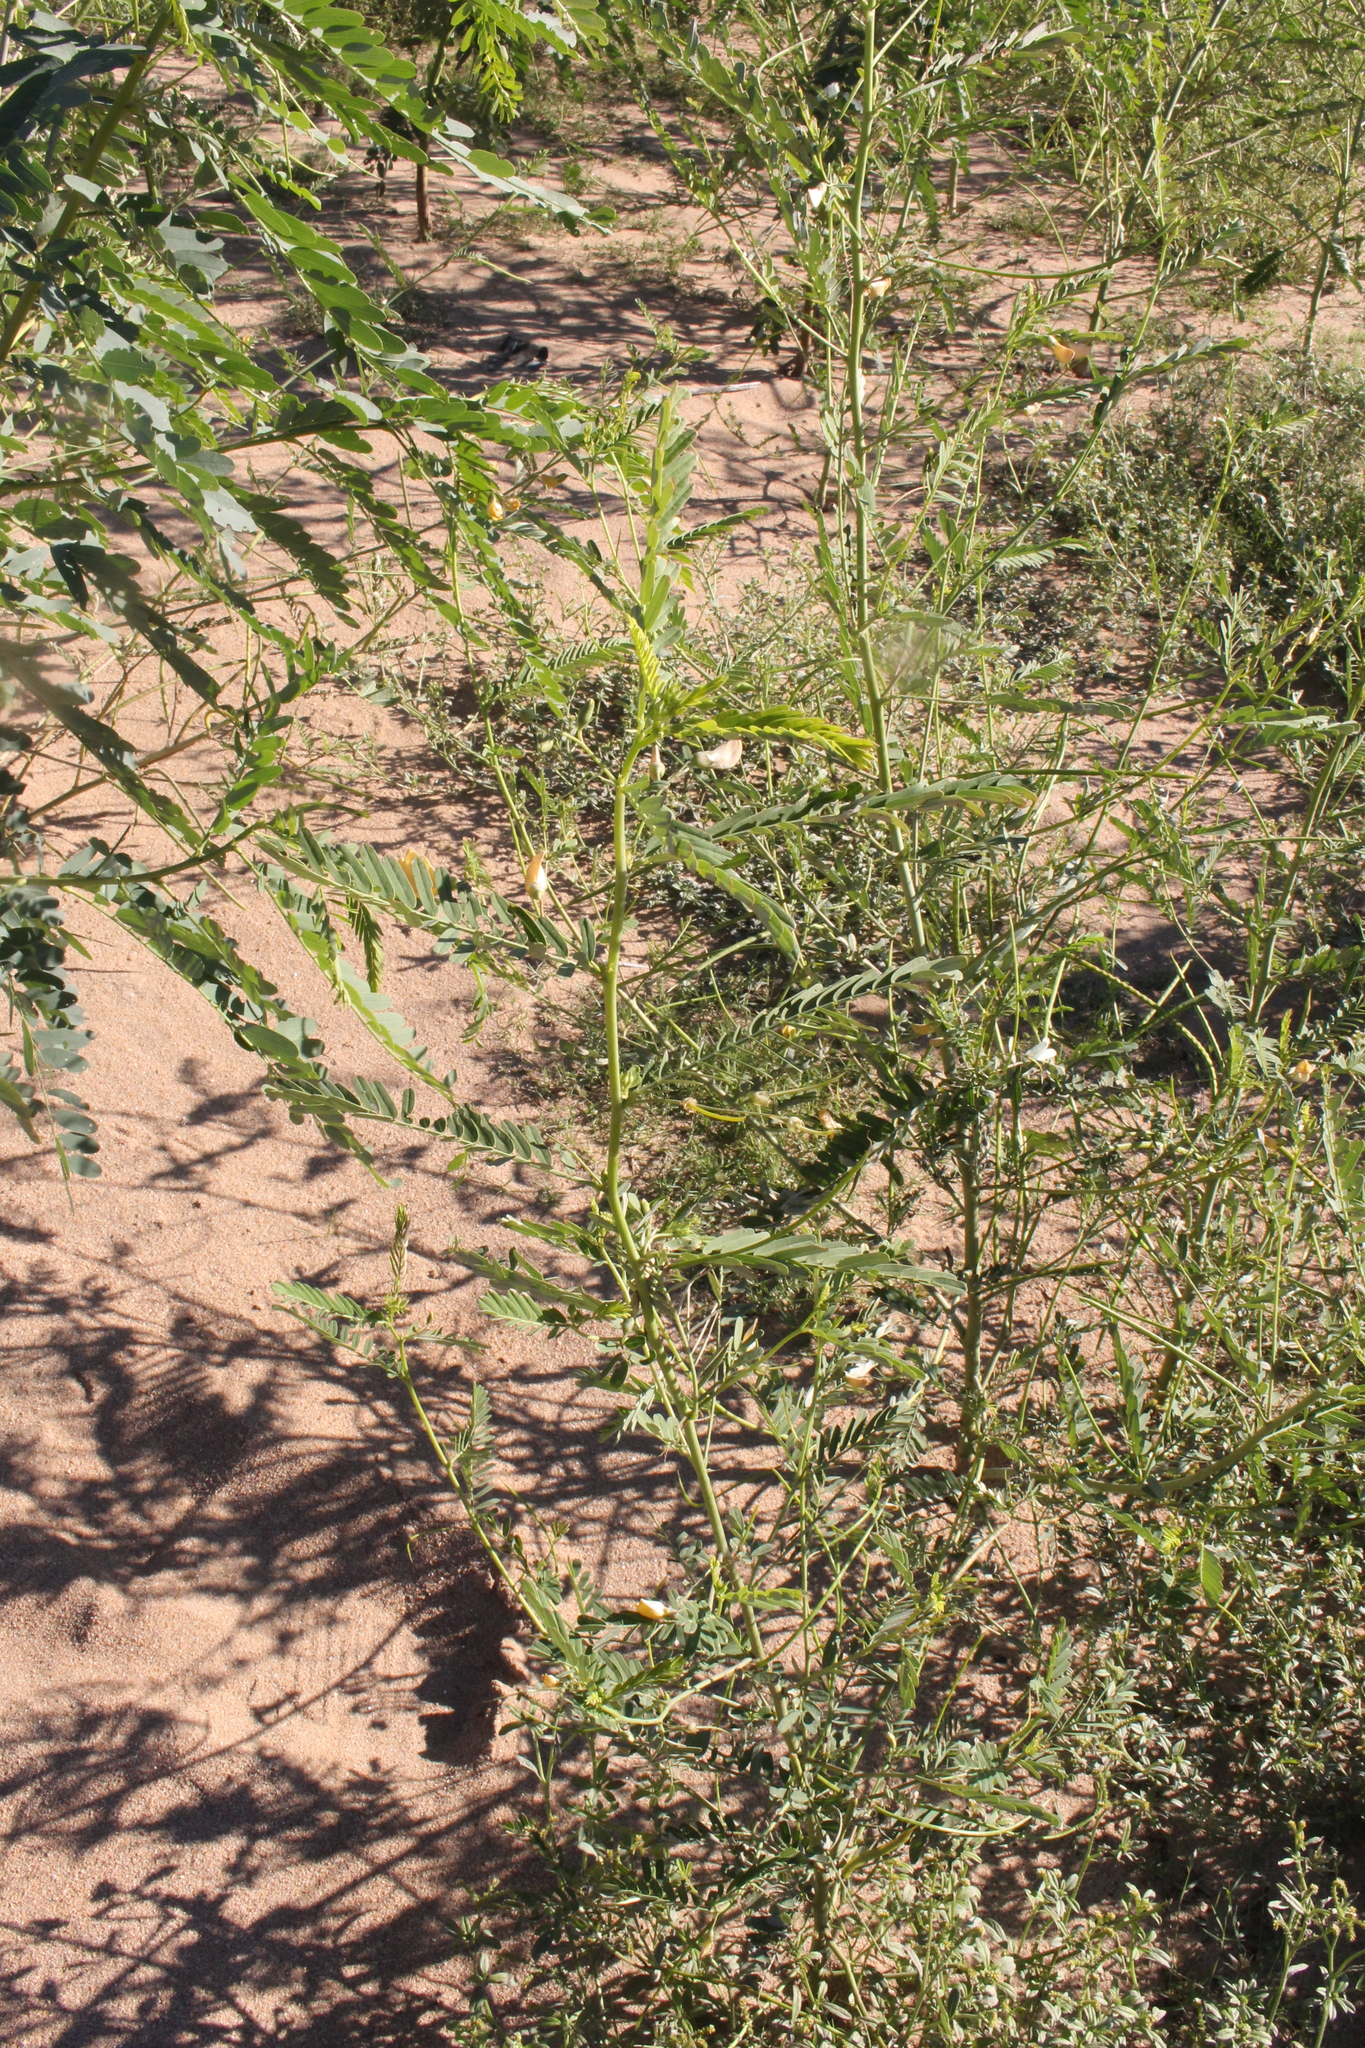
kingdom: Plantae
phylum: Tracheophyta
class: Magnoliopsida
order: Fabales
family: Fabaceae
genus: Sesbania
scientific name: Sesbania herbacea
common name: Bigpod sesbania
